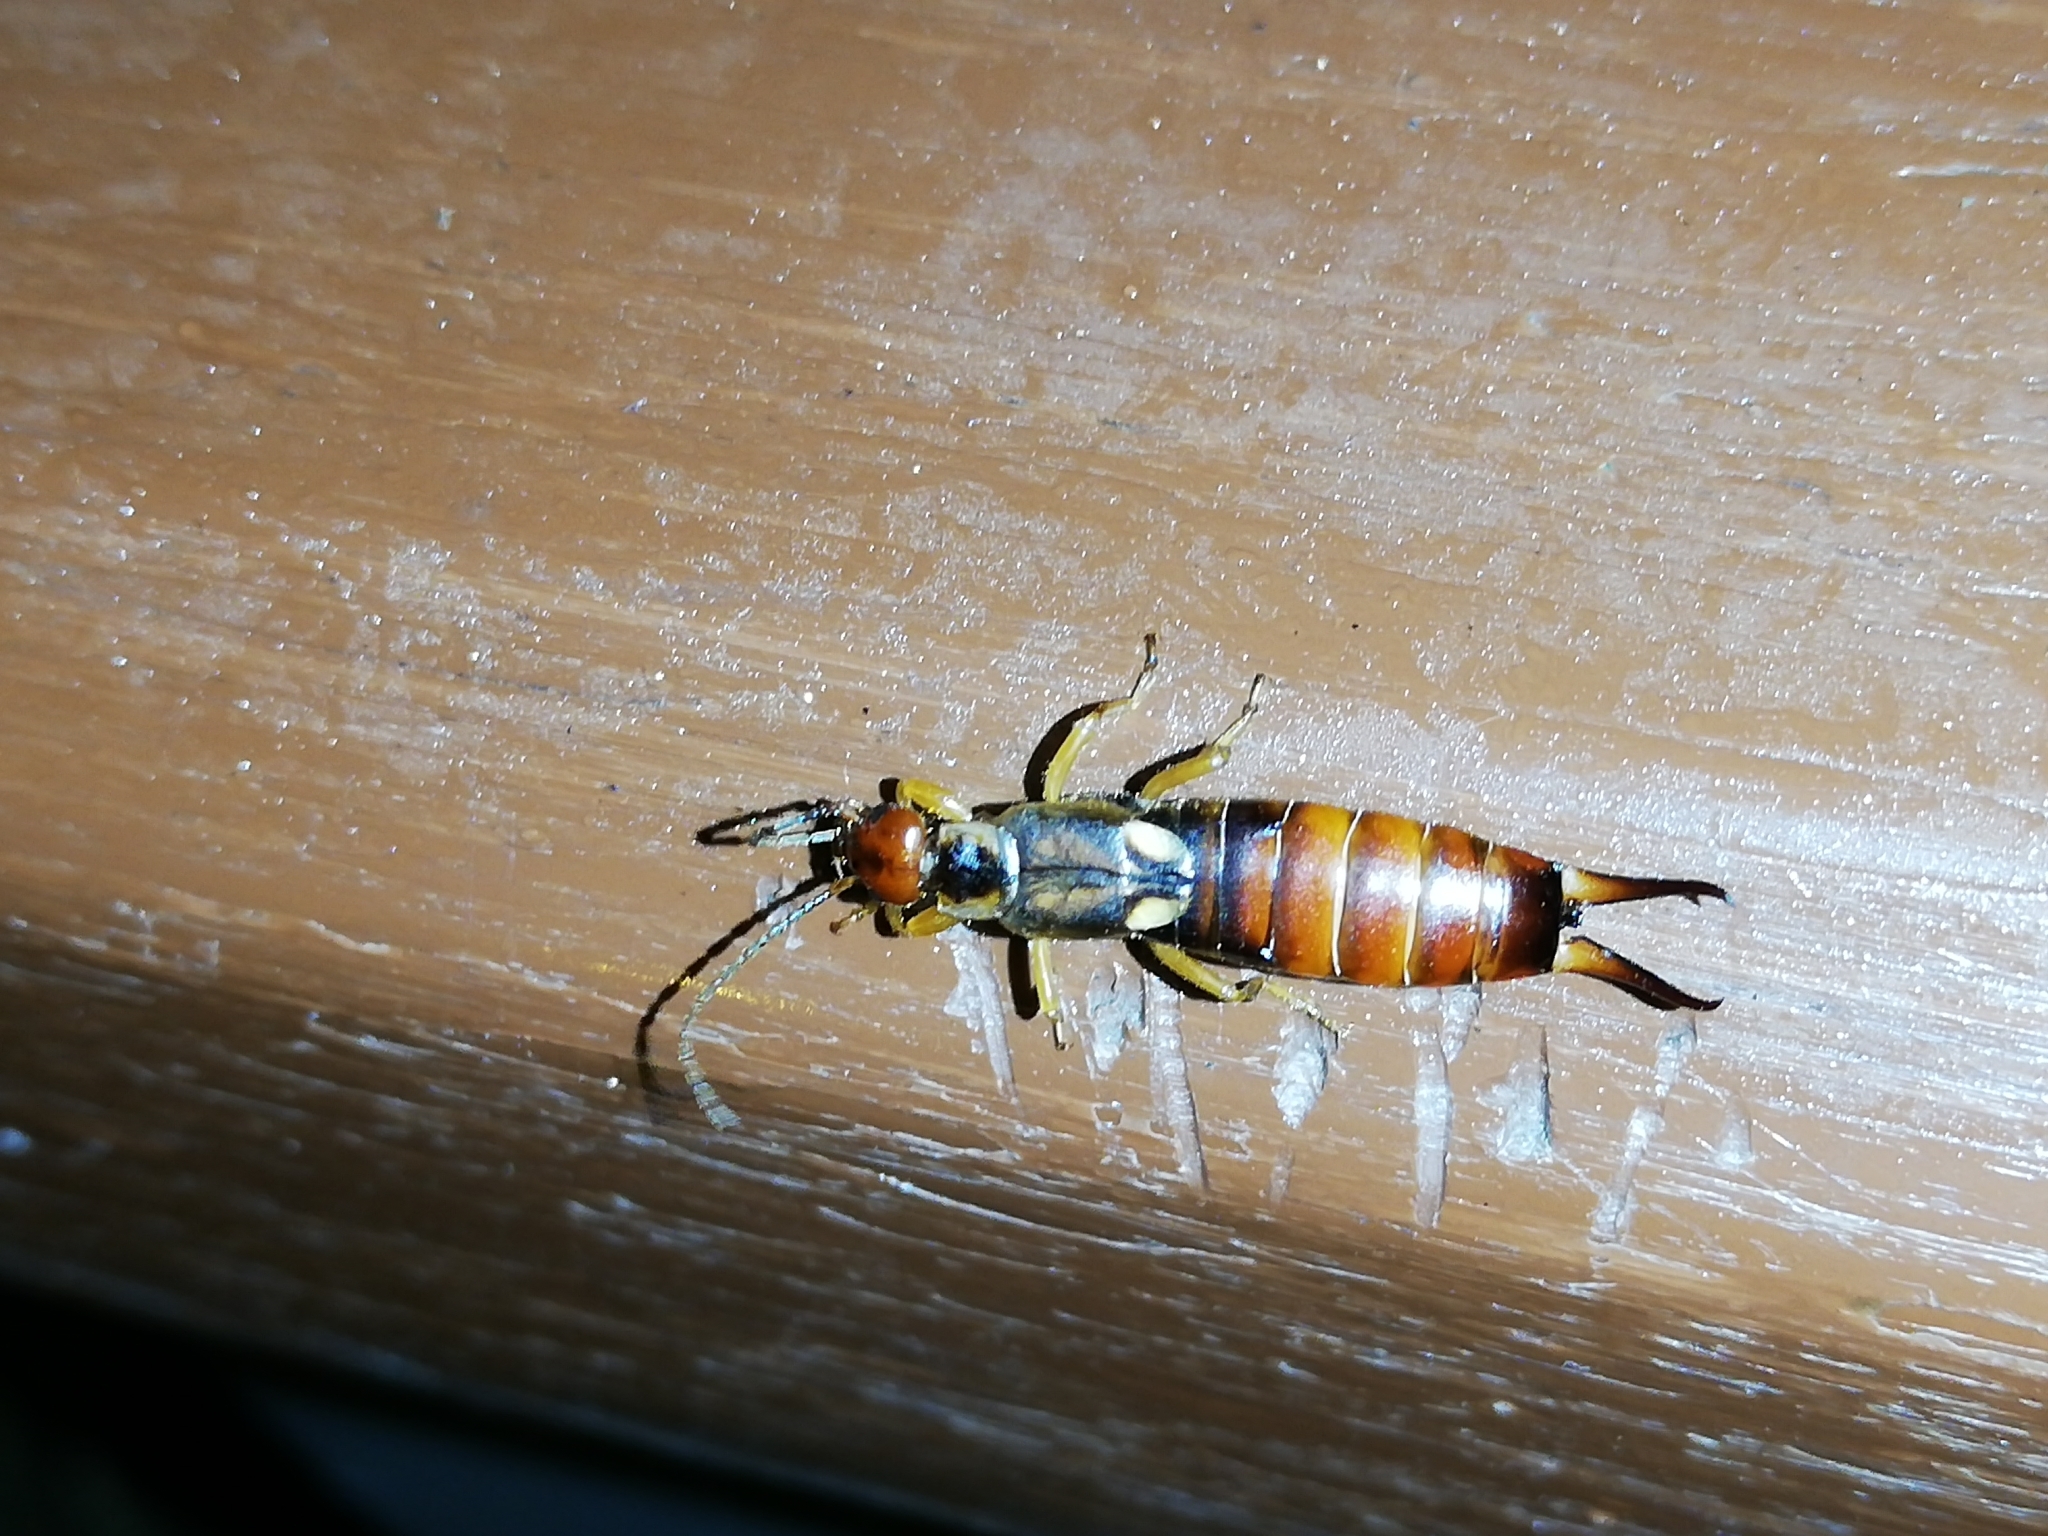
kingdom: Animalia
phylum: Arthropoda
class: Insecta
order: Dermaptera
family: Forficulidae
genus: Forficula
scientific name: Forficula
